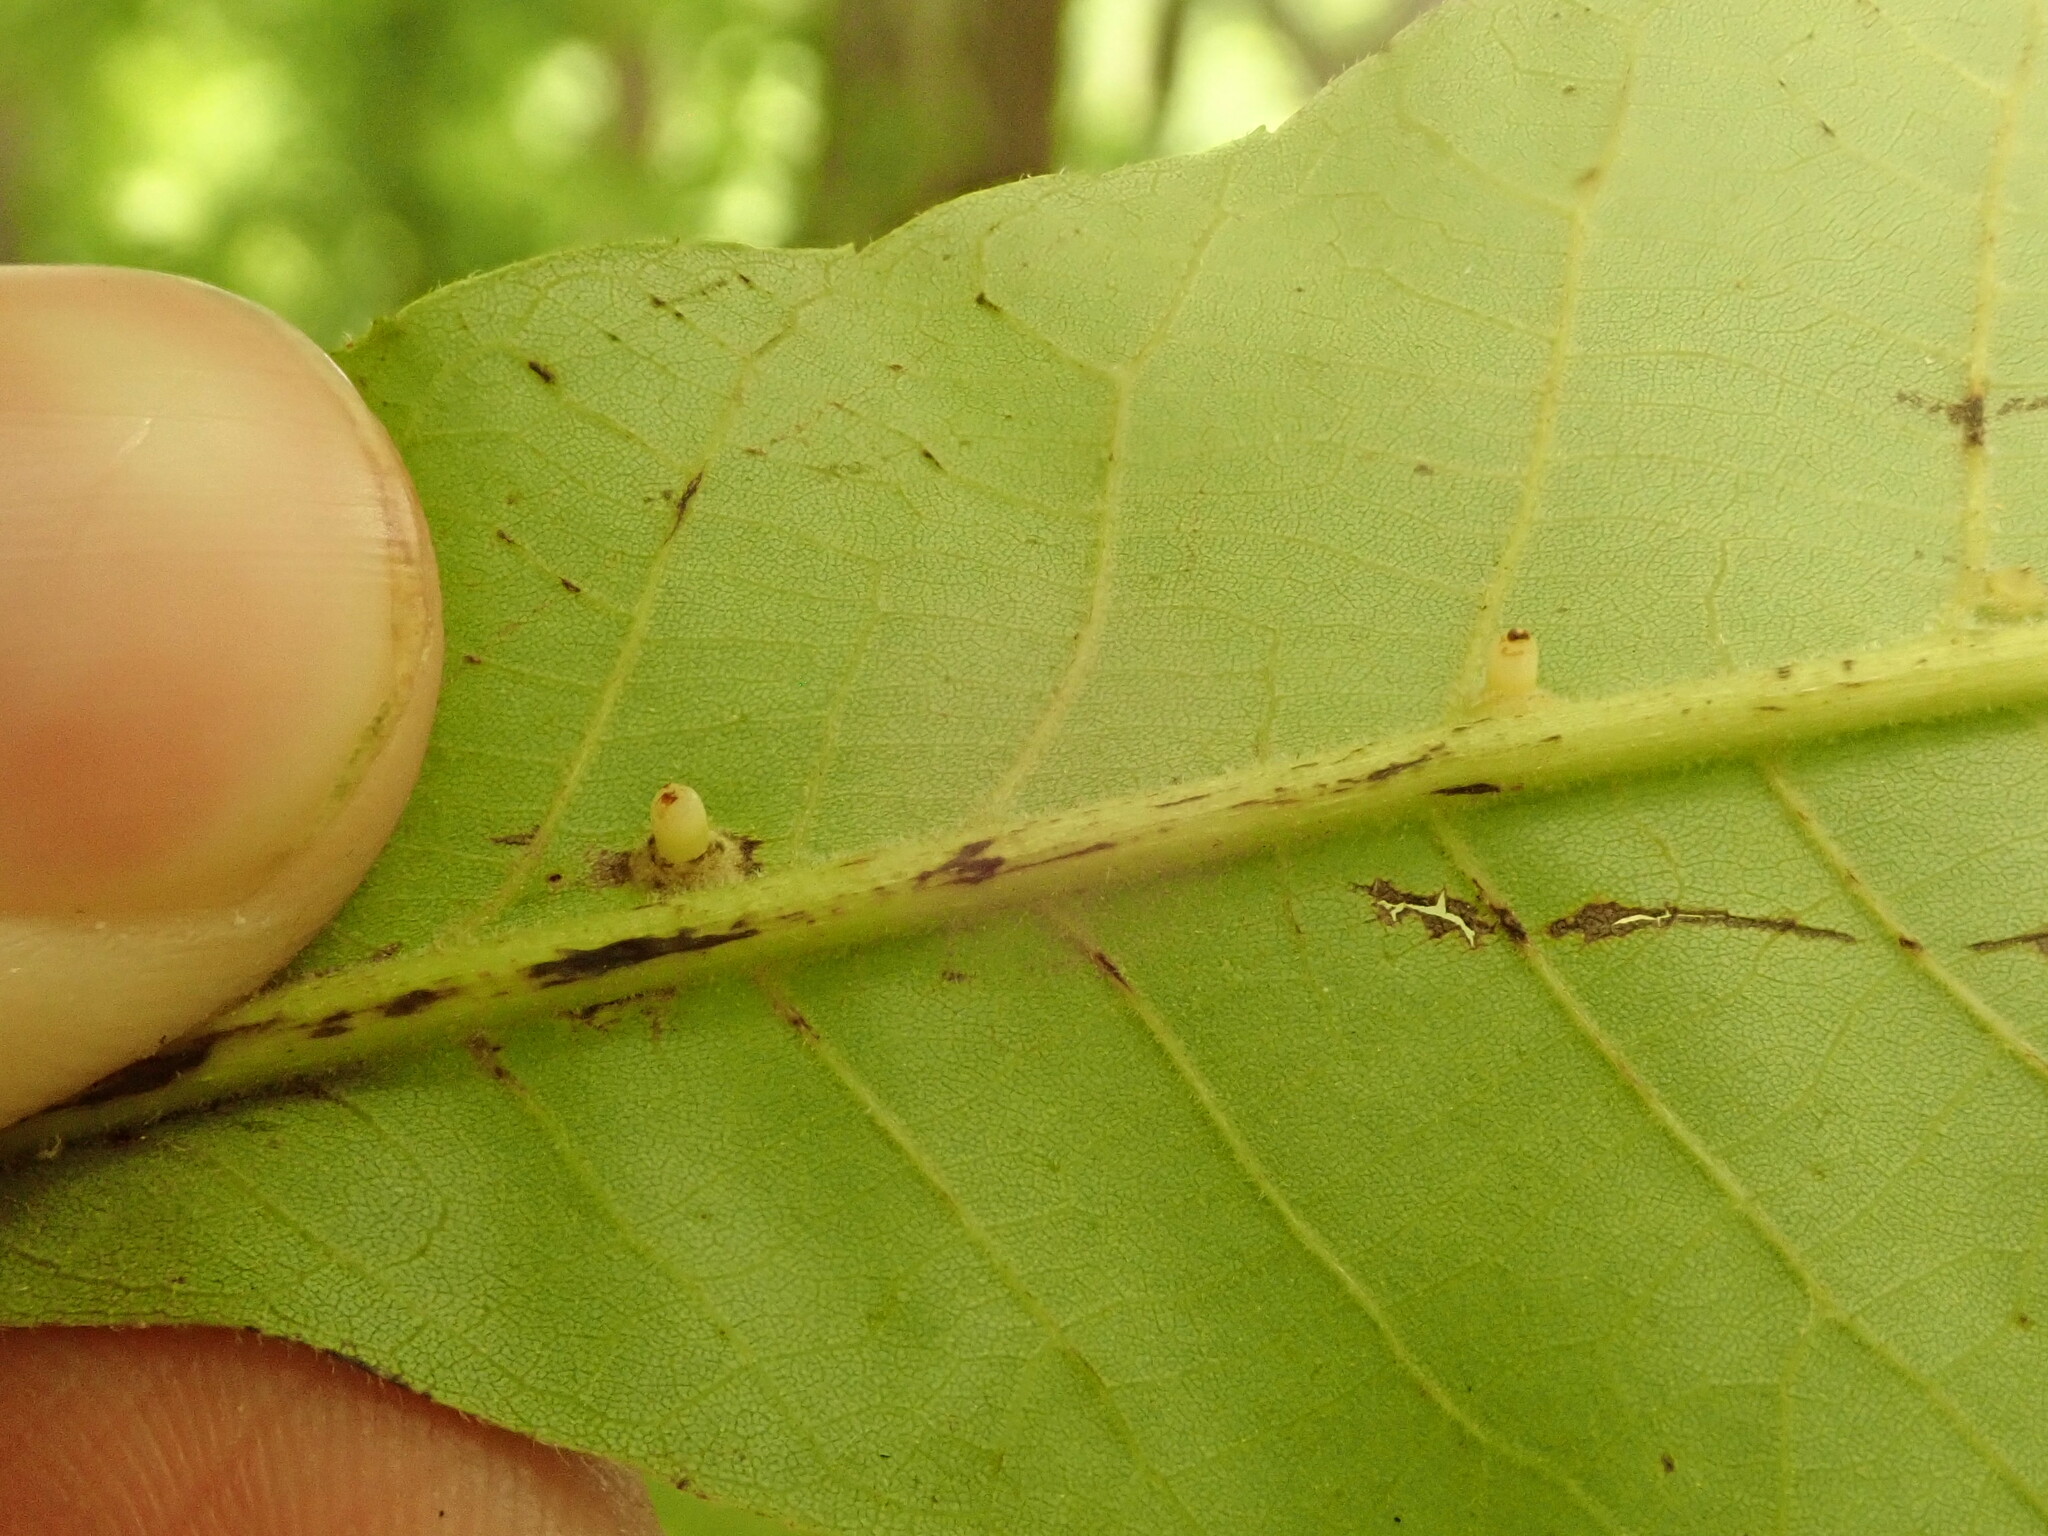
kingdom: Animalia
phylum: Arthropoda
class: Insecta
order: Diptera
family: Cecidomyiidae
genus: Caryomyia
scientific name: Caryomyia tubicola
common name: Hickory bullet gall midge
